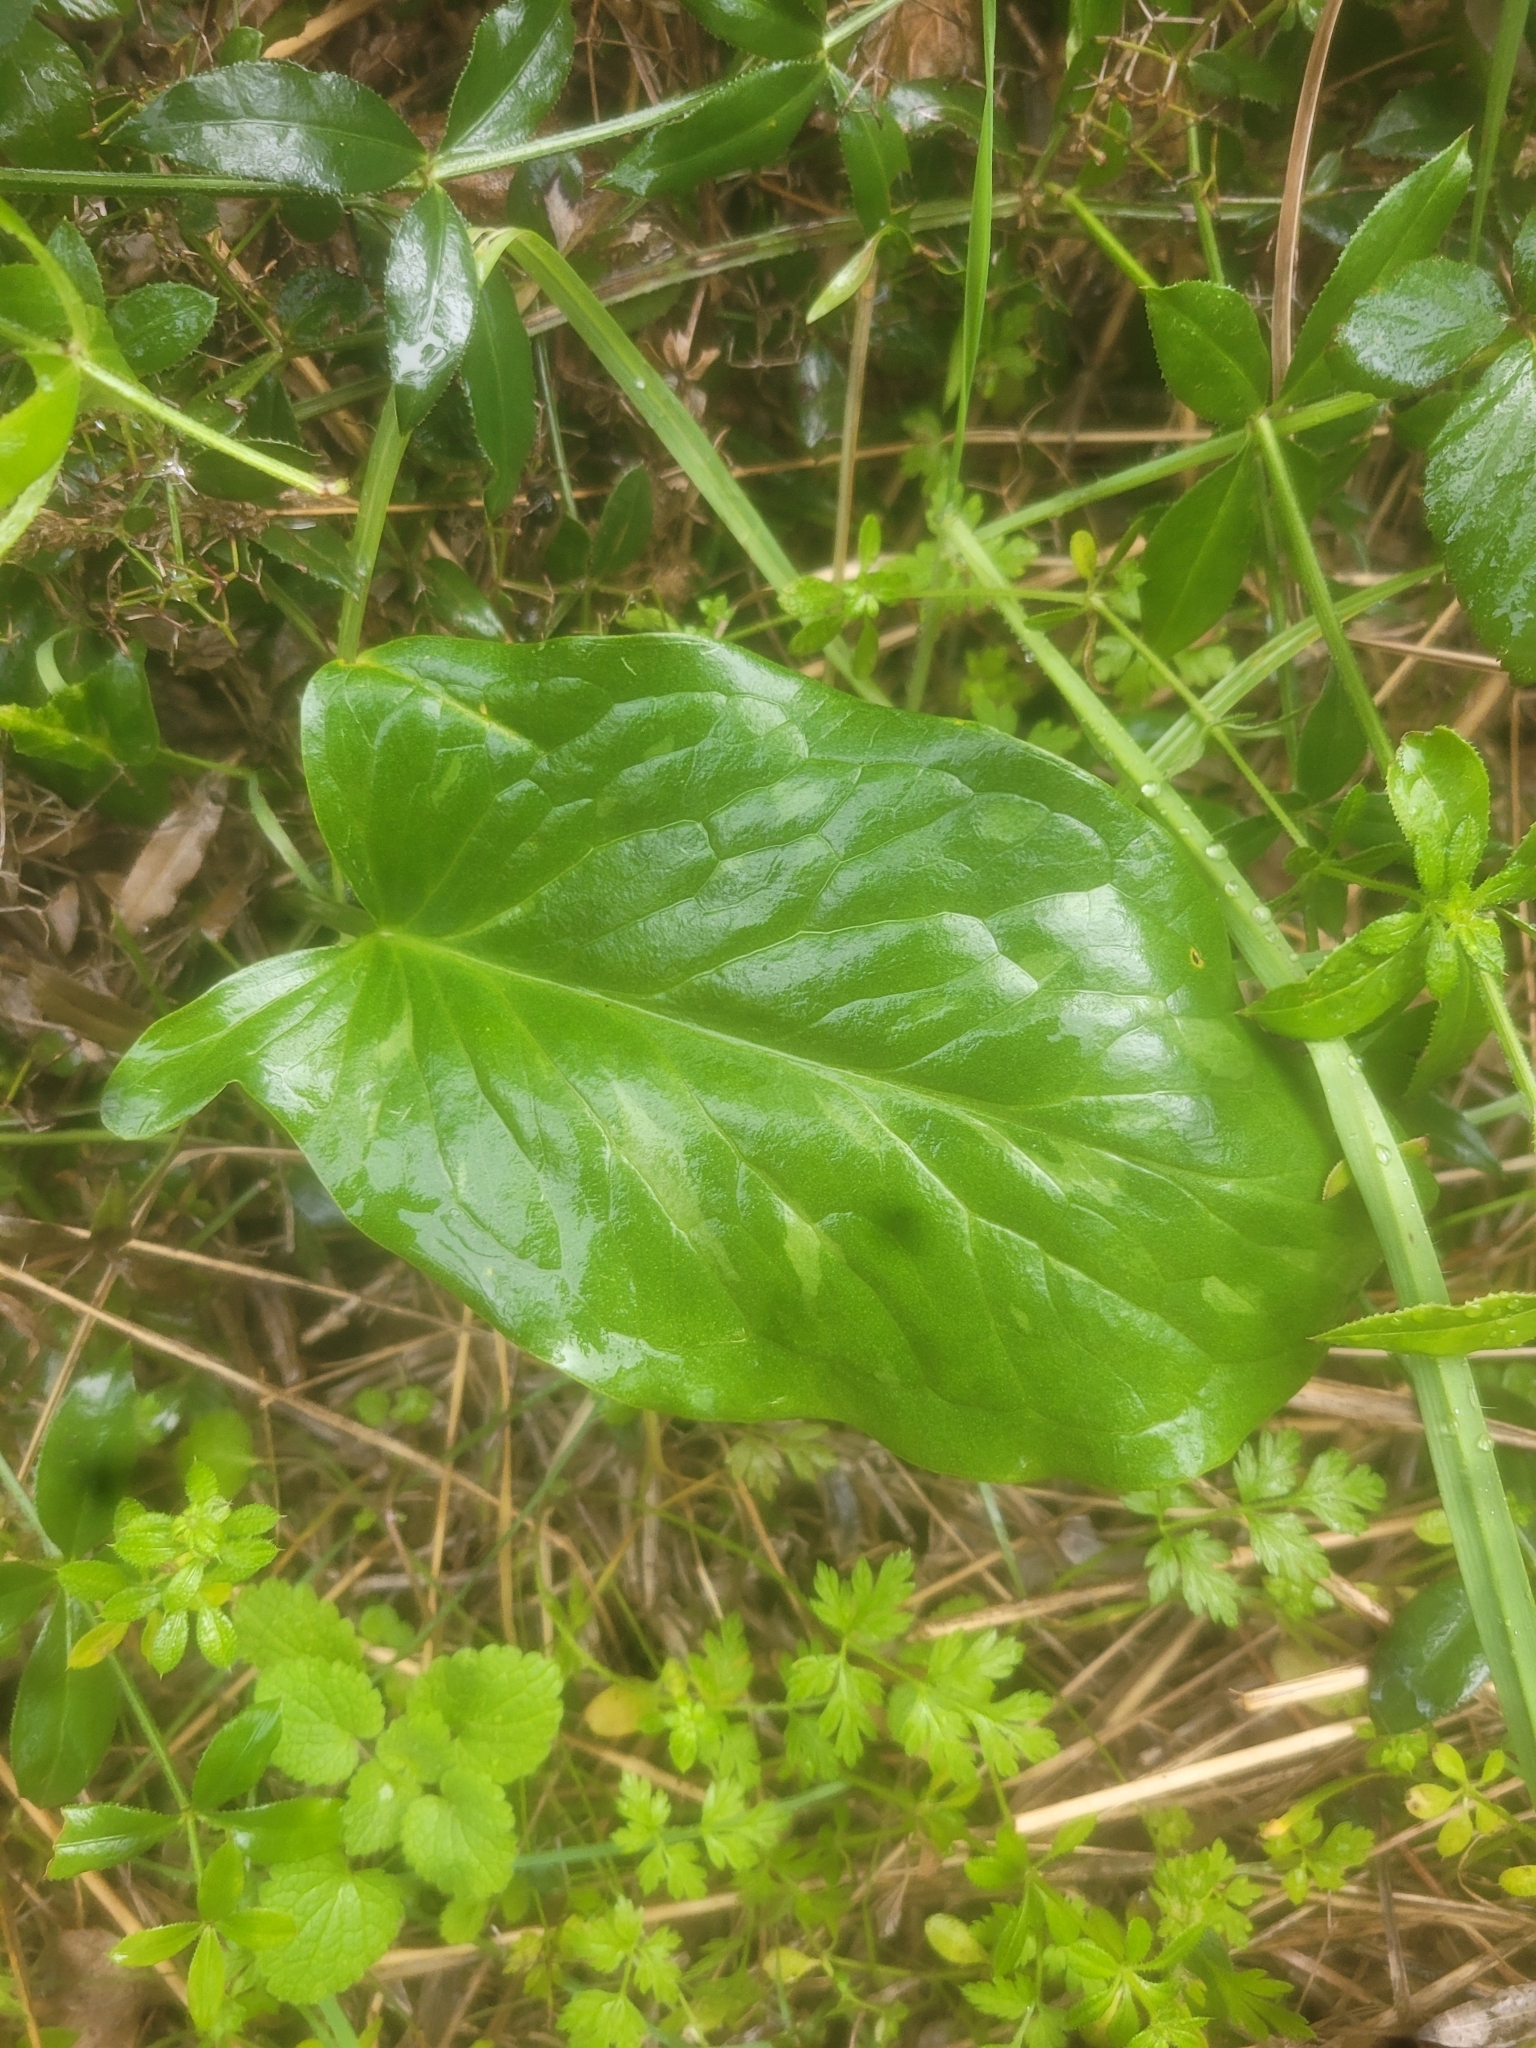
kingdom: Plantae
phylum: Tracheophyta
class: Liliopsida
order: Alismatales
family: Araceae
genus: Arum
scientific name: Arum italicum
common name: Italian lords-and-ladies
